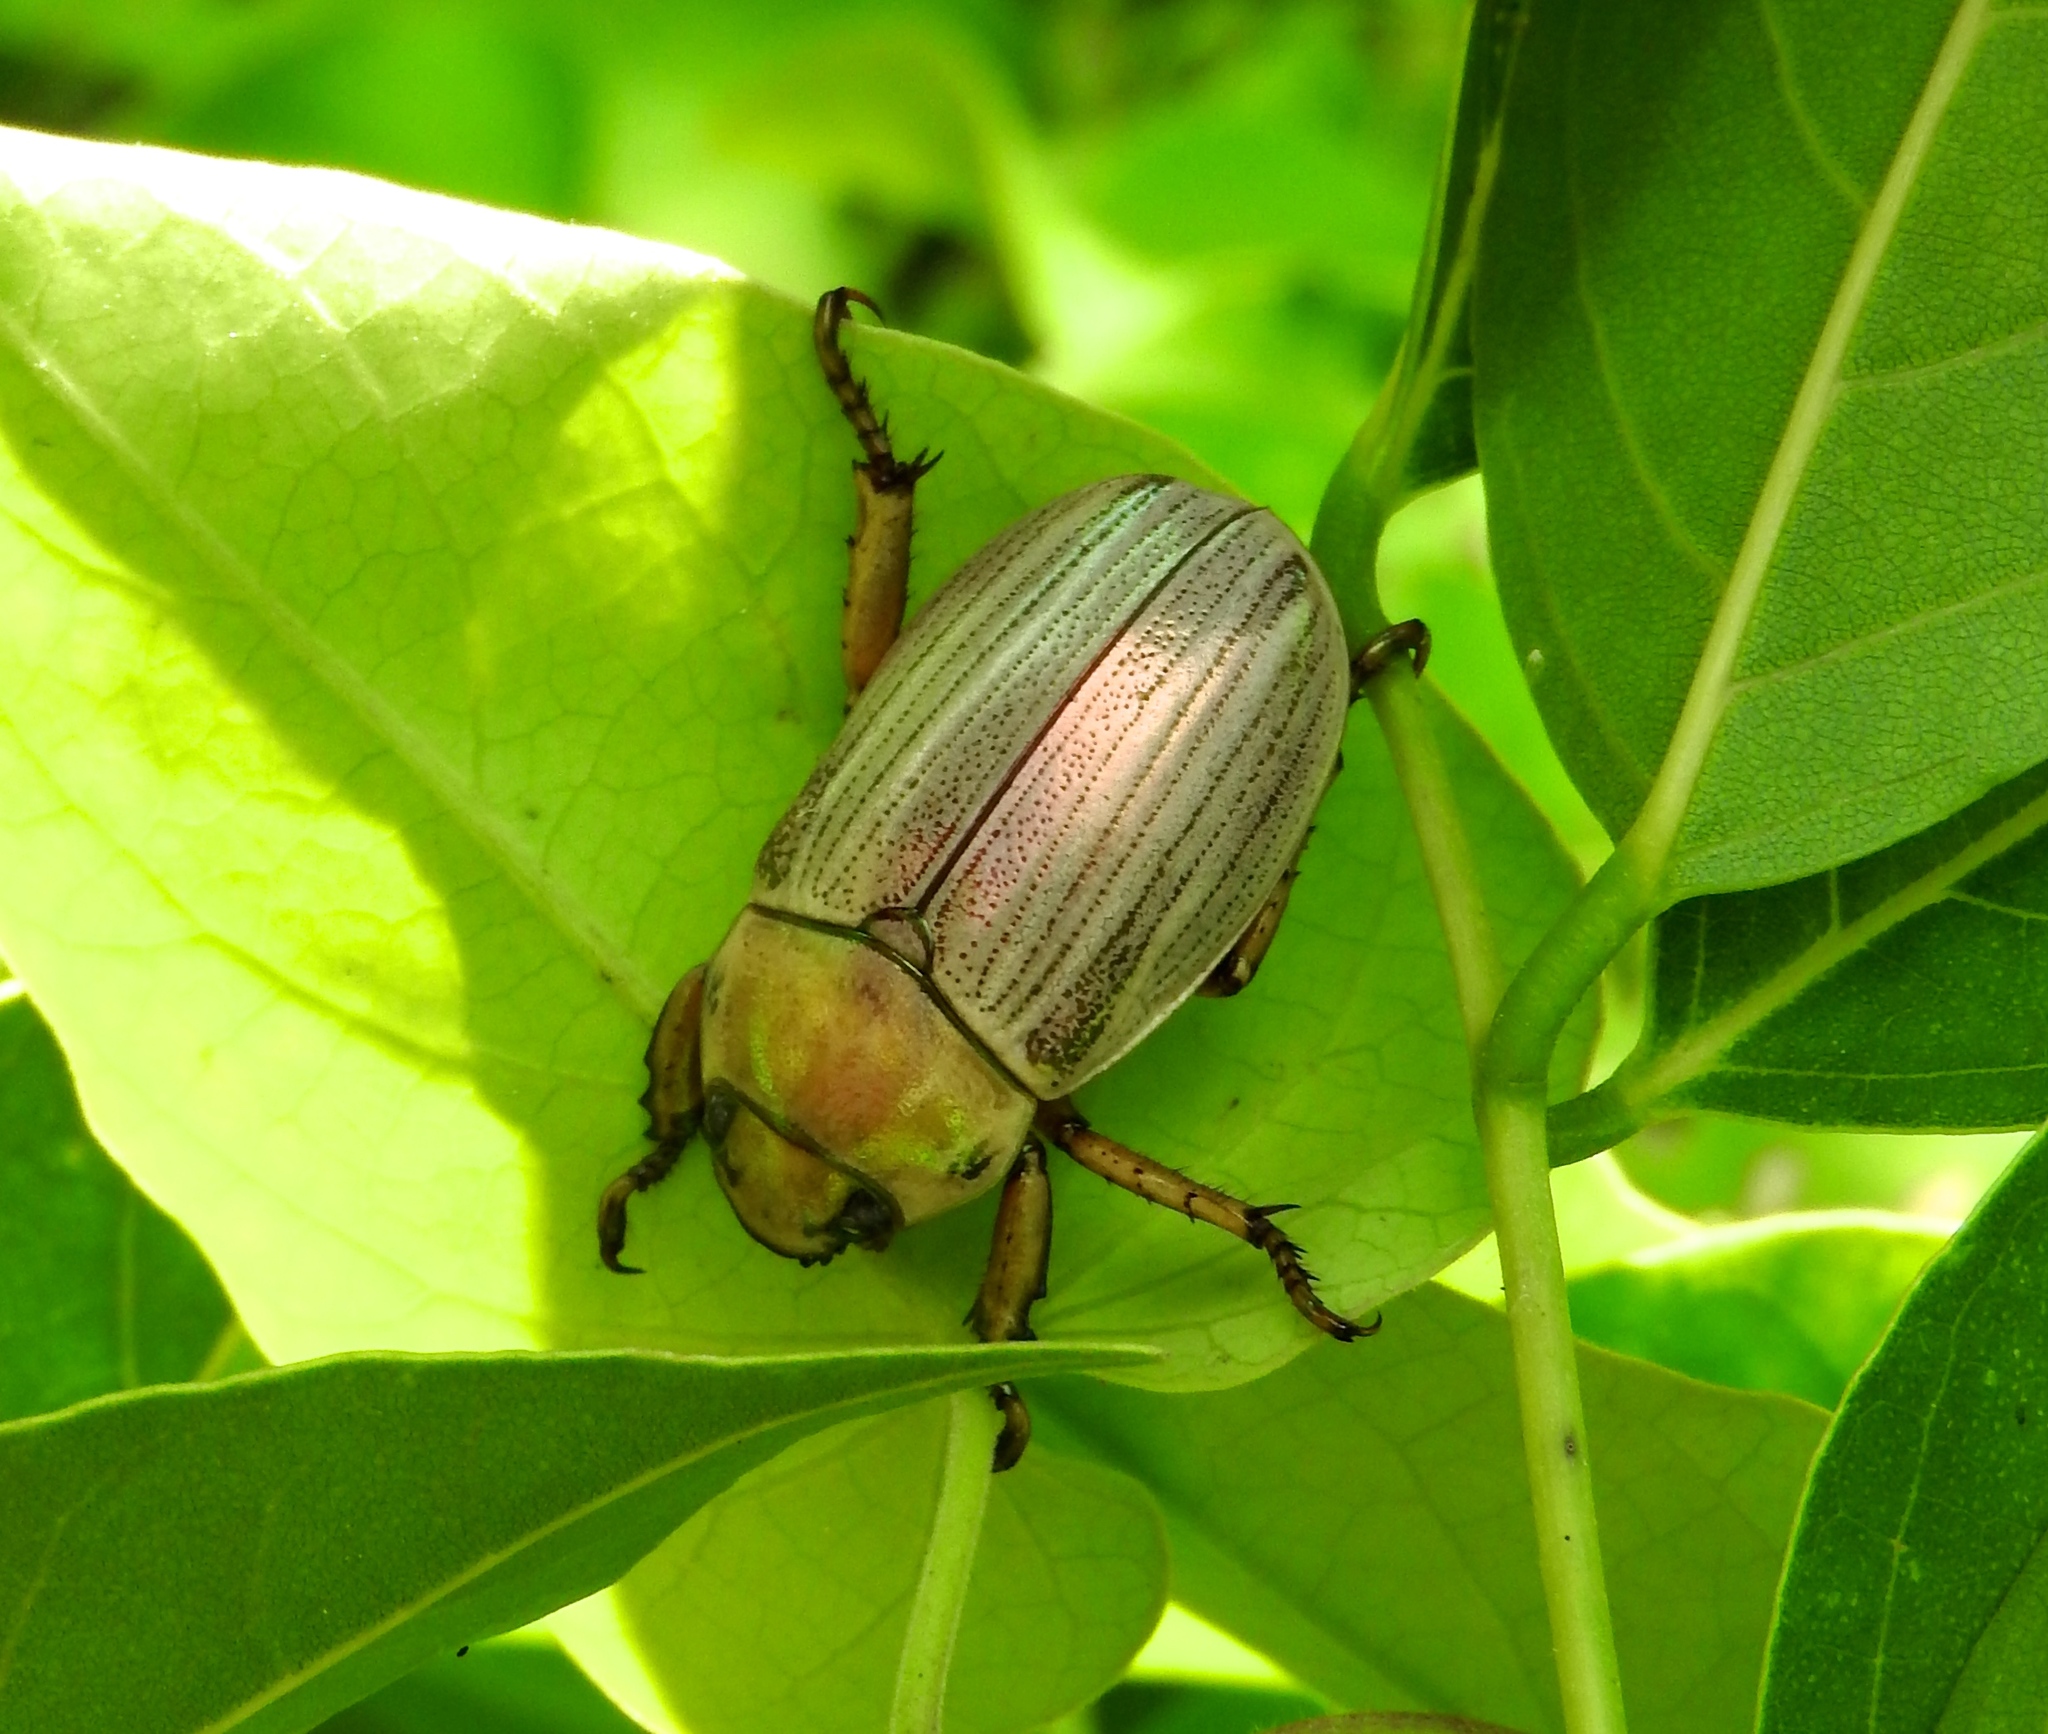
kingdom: Animalia
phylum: Arthropoda
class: Insecta
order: Coleoptera
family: Scarabaeidae
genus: Pelidnota
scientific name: Pelidnota virescens
